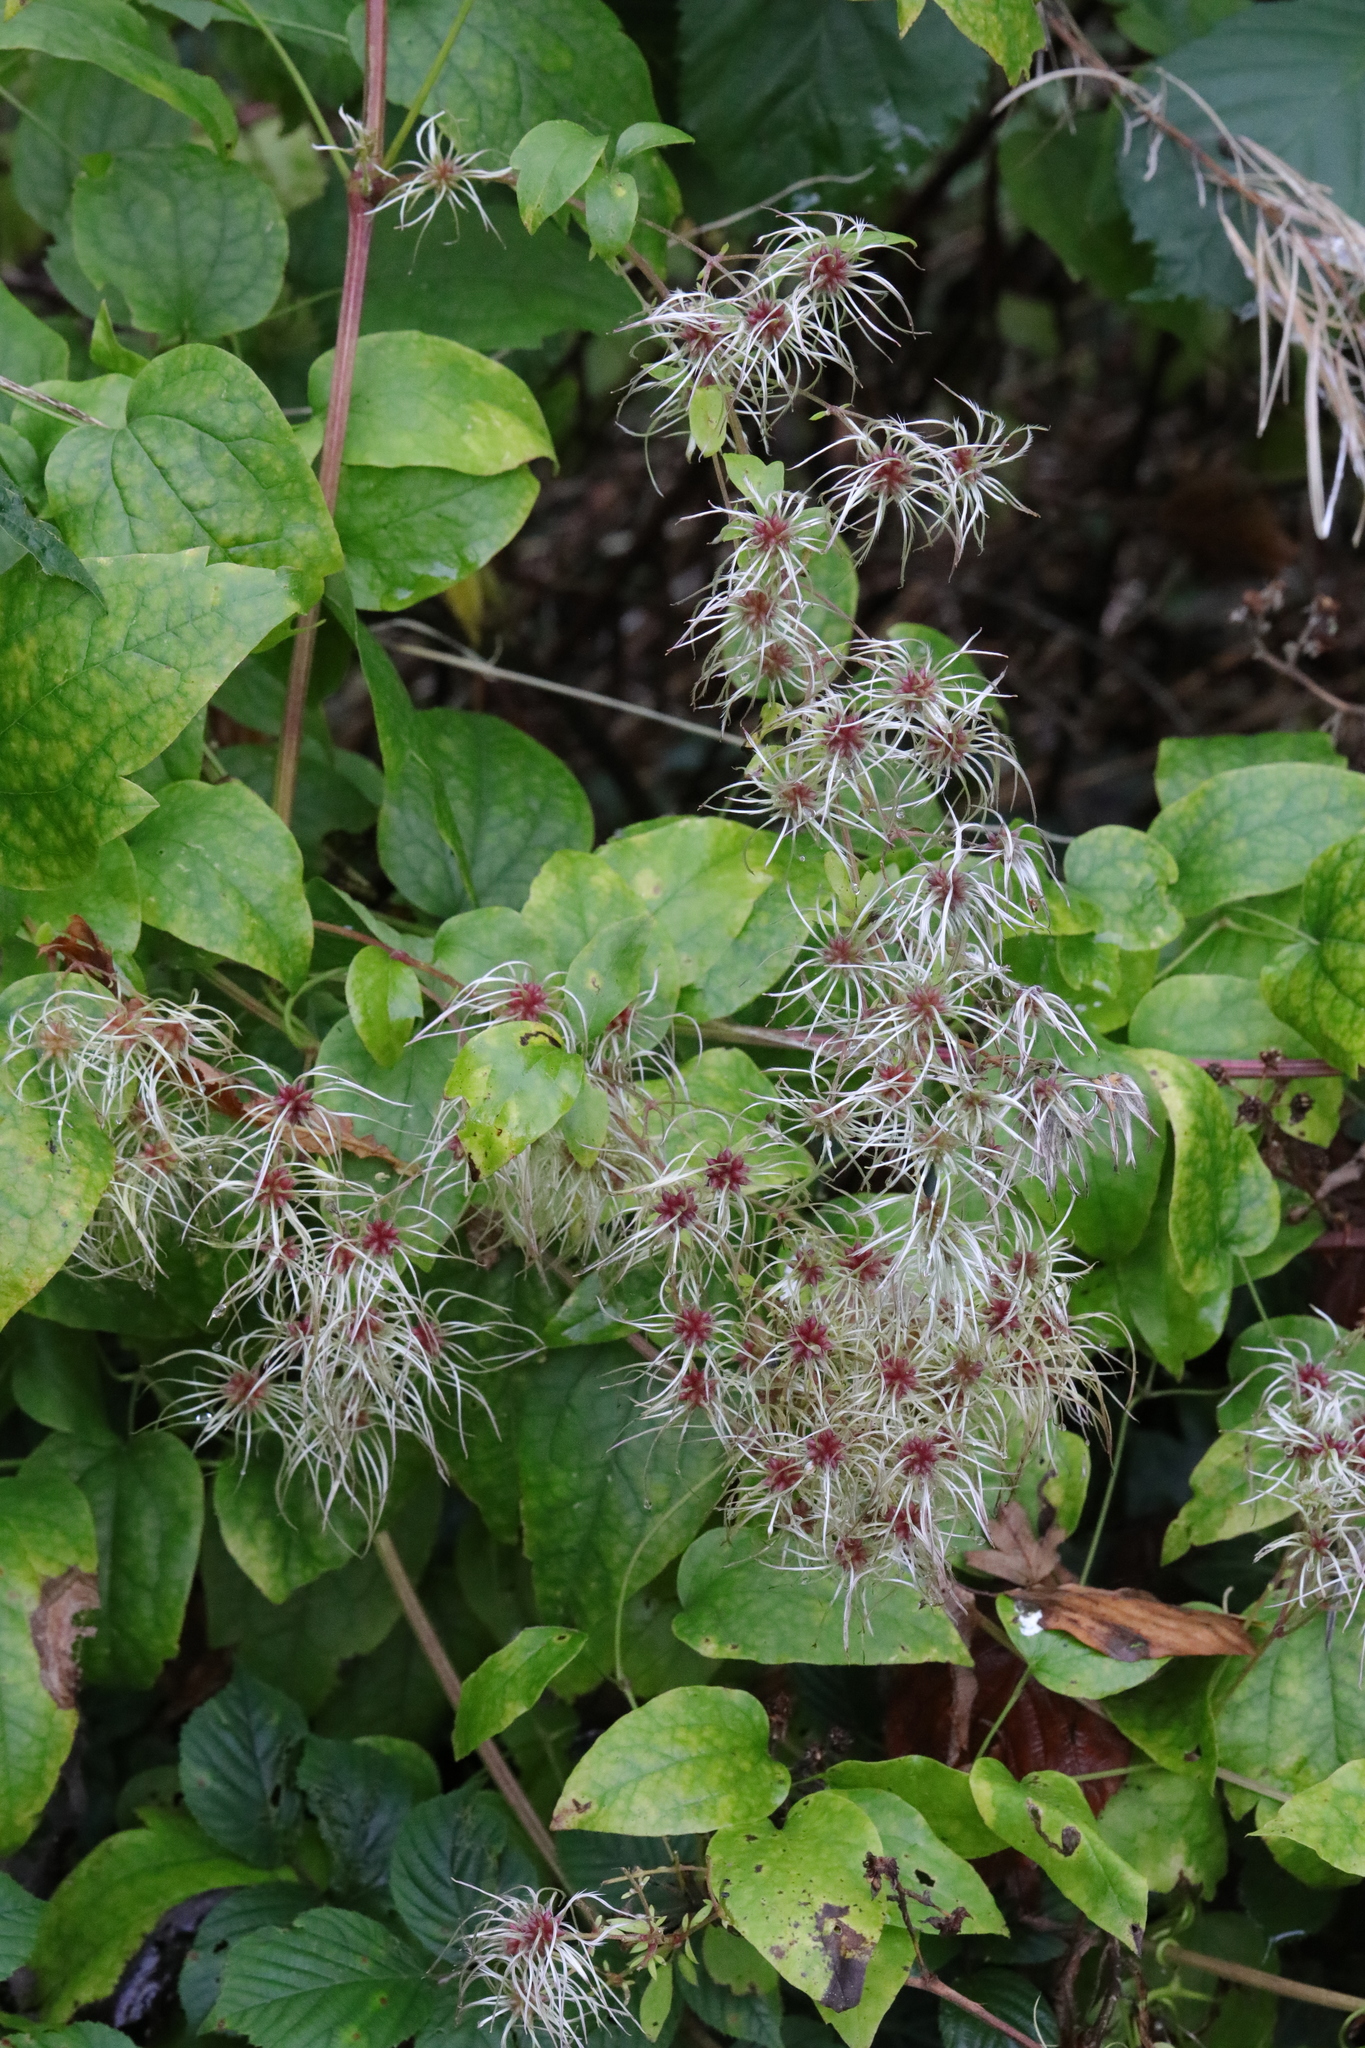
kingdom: Plantae
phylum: Tracheophyta
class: Magnoliopsida
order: Ranunculales
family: Ranunculaceae
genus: Clematis
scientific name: Clematis vitalba
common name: Evergreen clematis
